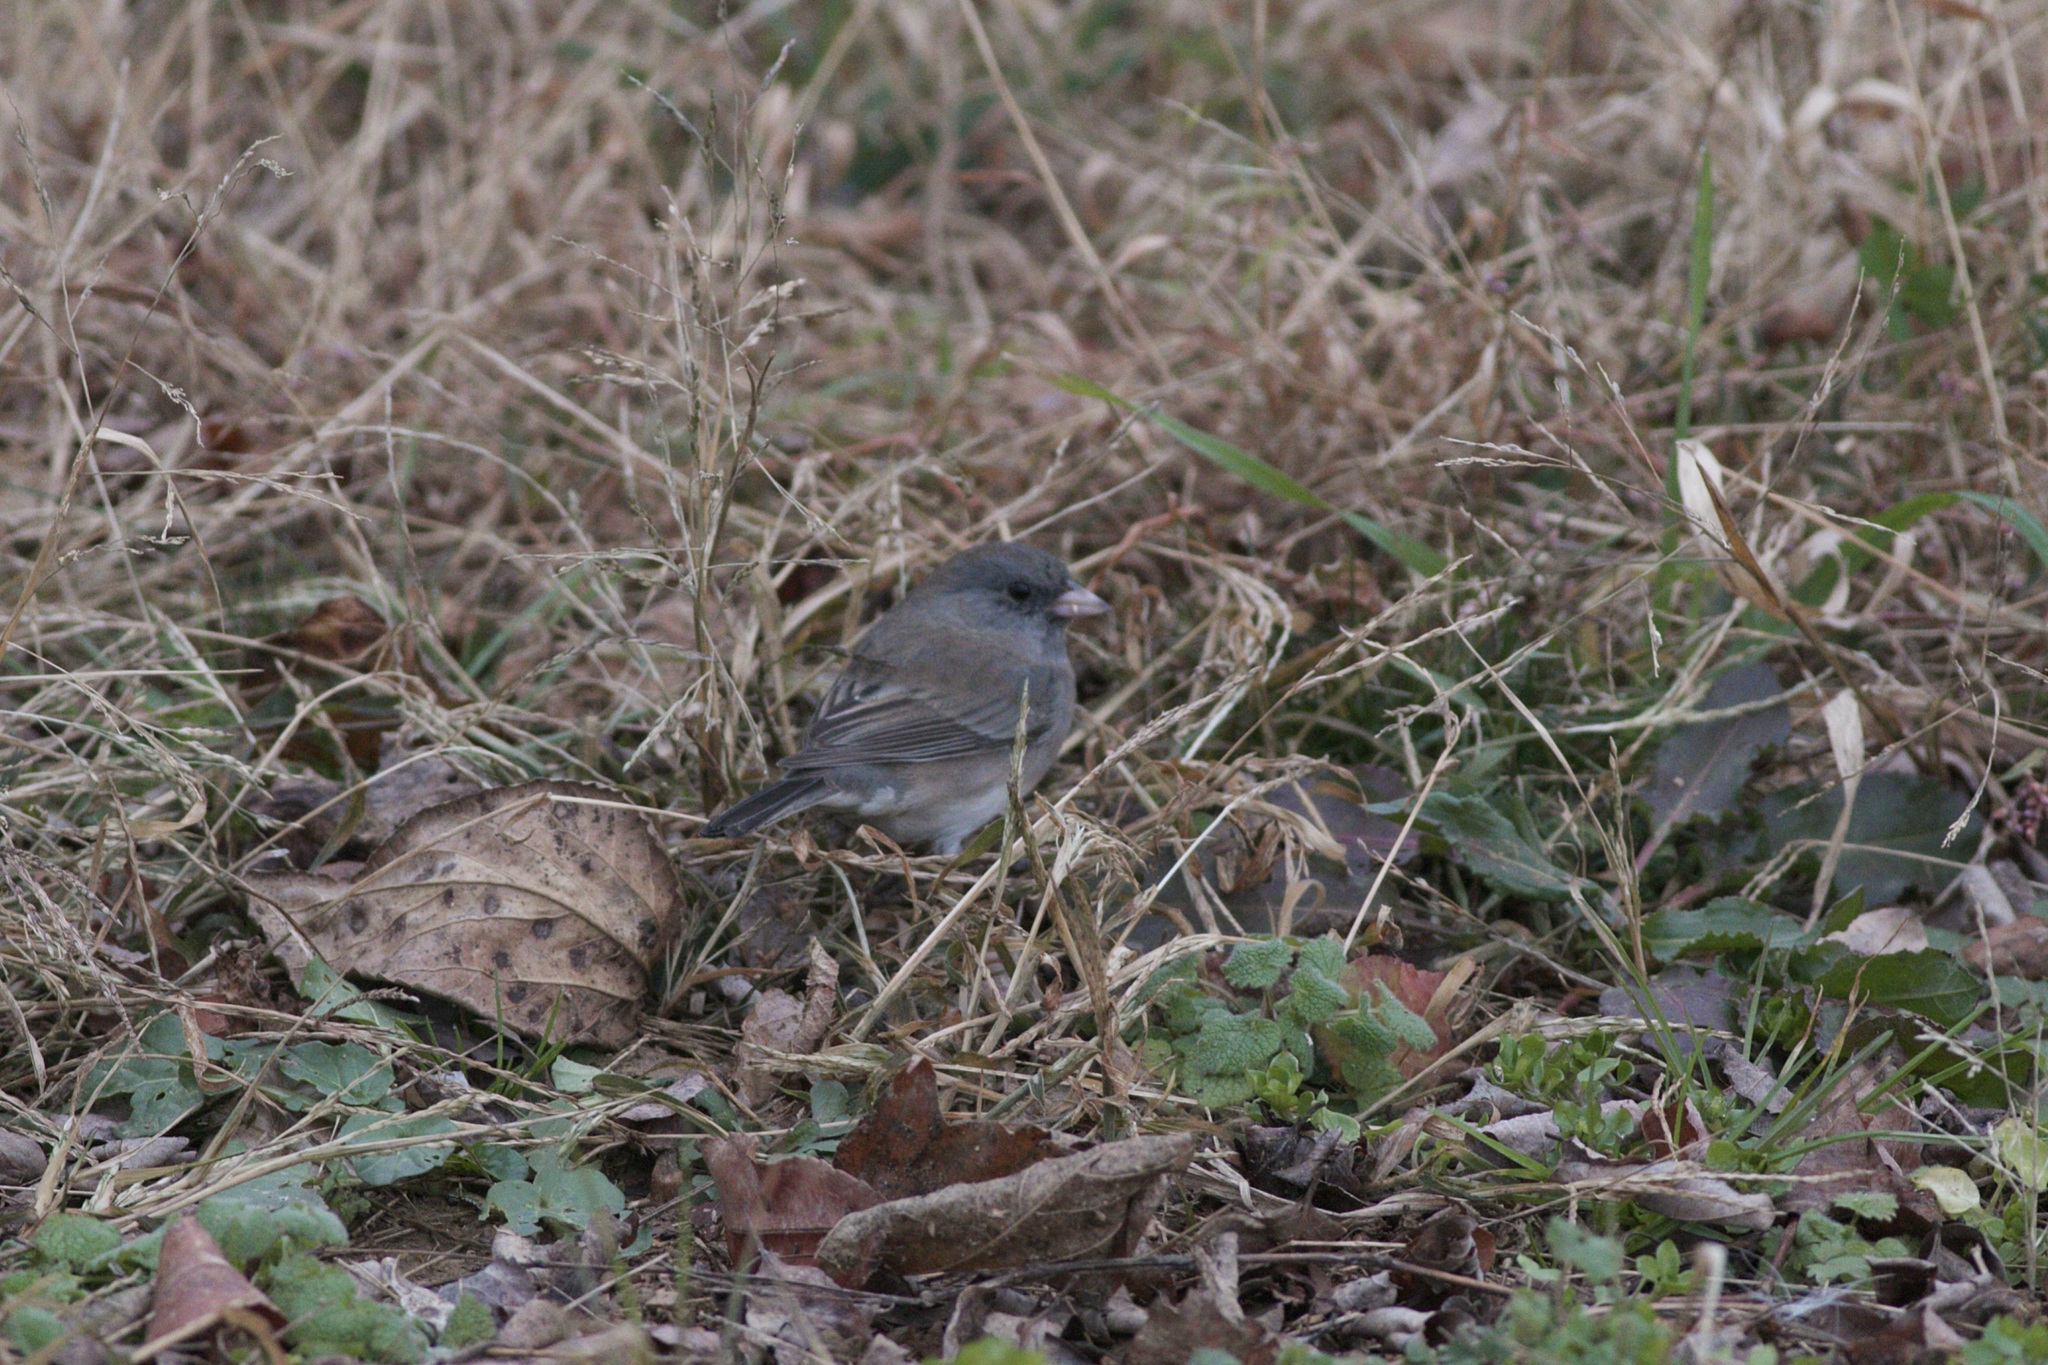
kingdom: Animalia
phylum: Chordata
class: Aves
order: Passeriformes
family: Passerellidae
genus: Junco
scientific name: Junco hyemalis
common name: Dark-eyed junco
